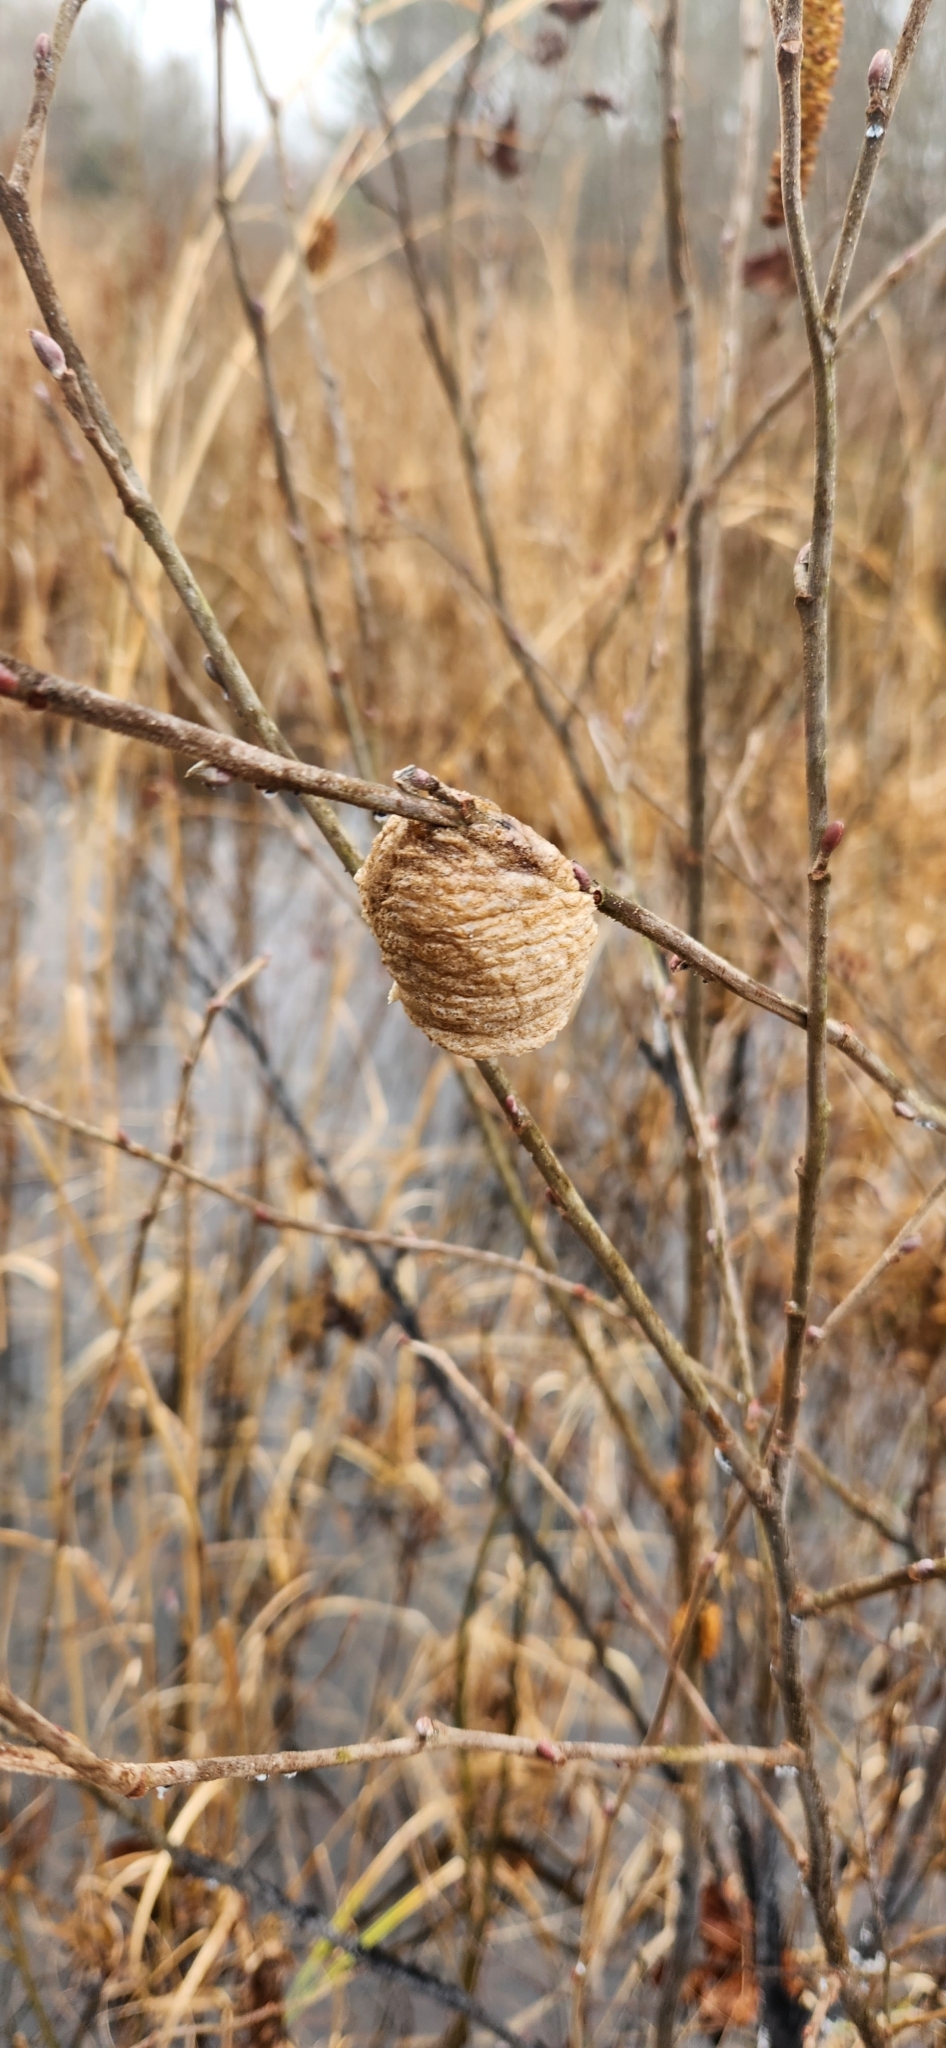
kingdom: Animalia
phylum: Arthropoda
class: Insecta
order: Mantodea
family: Mantidae
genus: Tenodera
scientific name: Tenodera sinensis
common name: Chinese mantis
